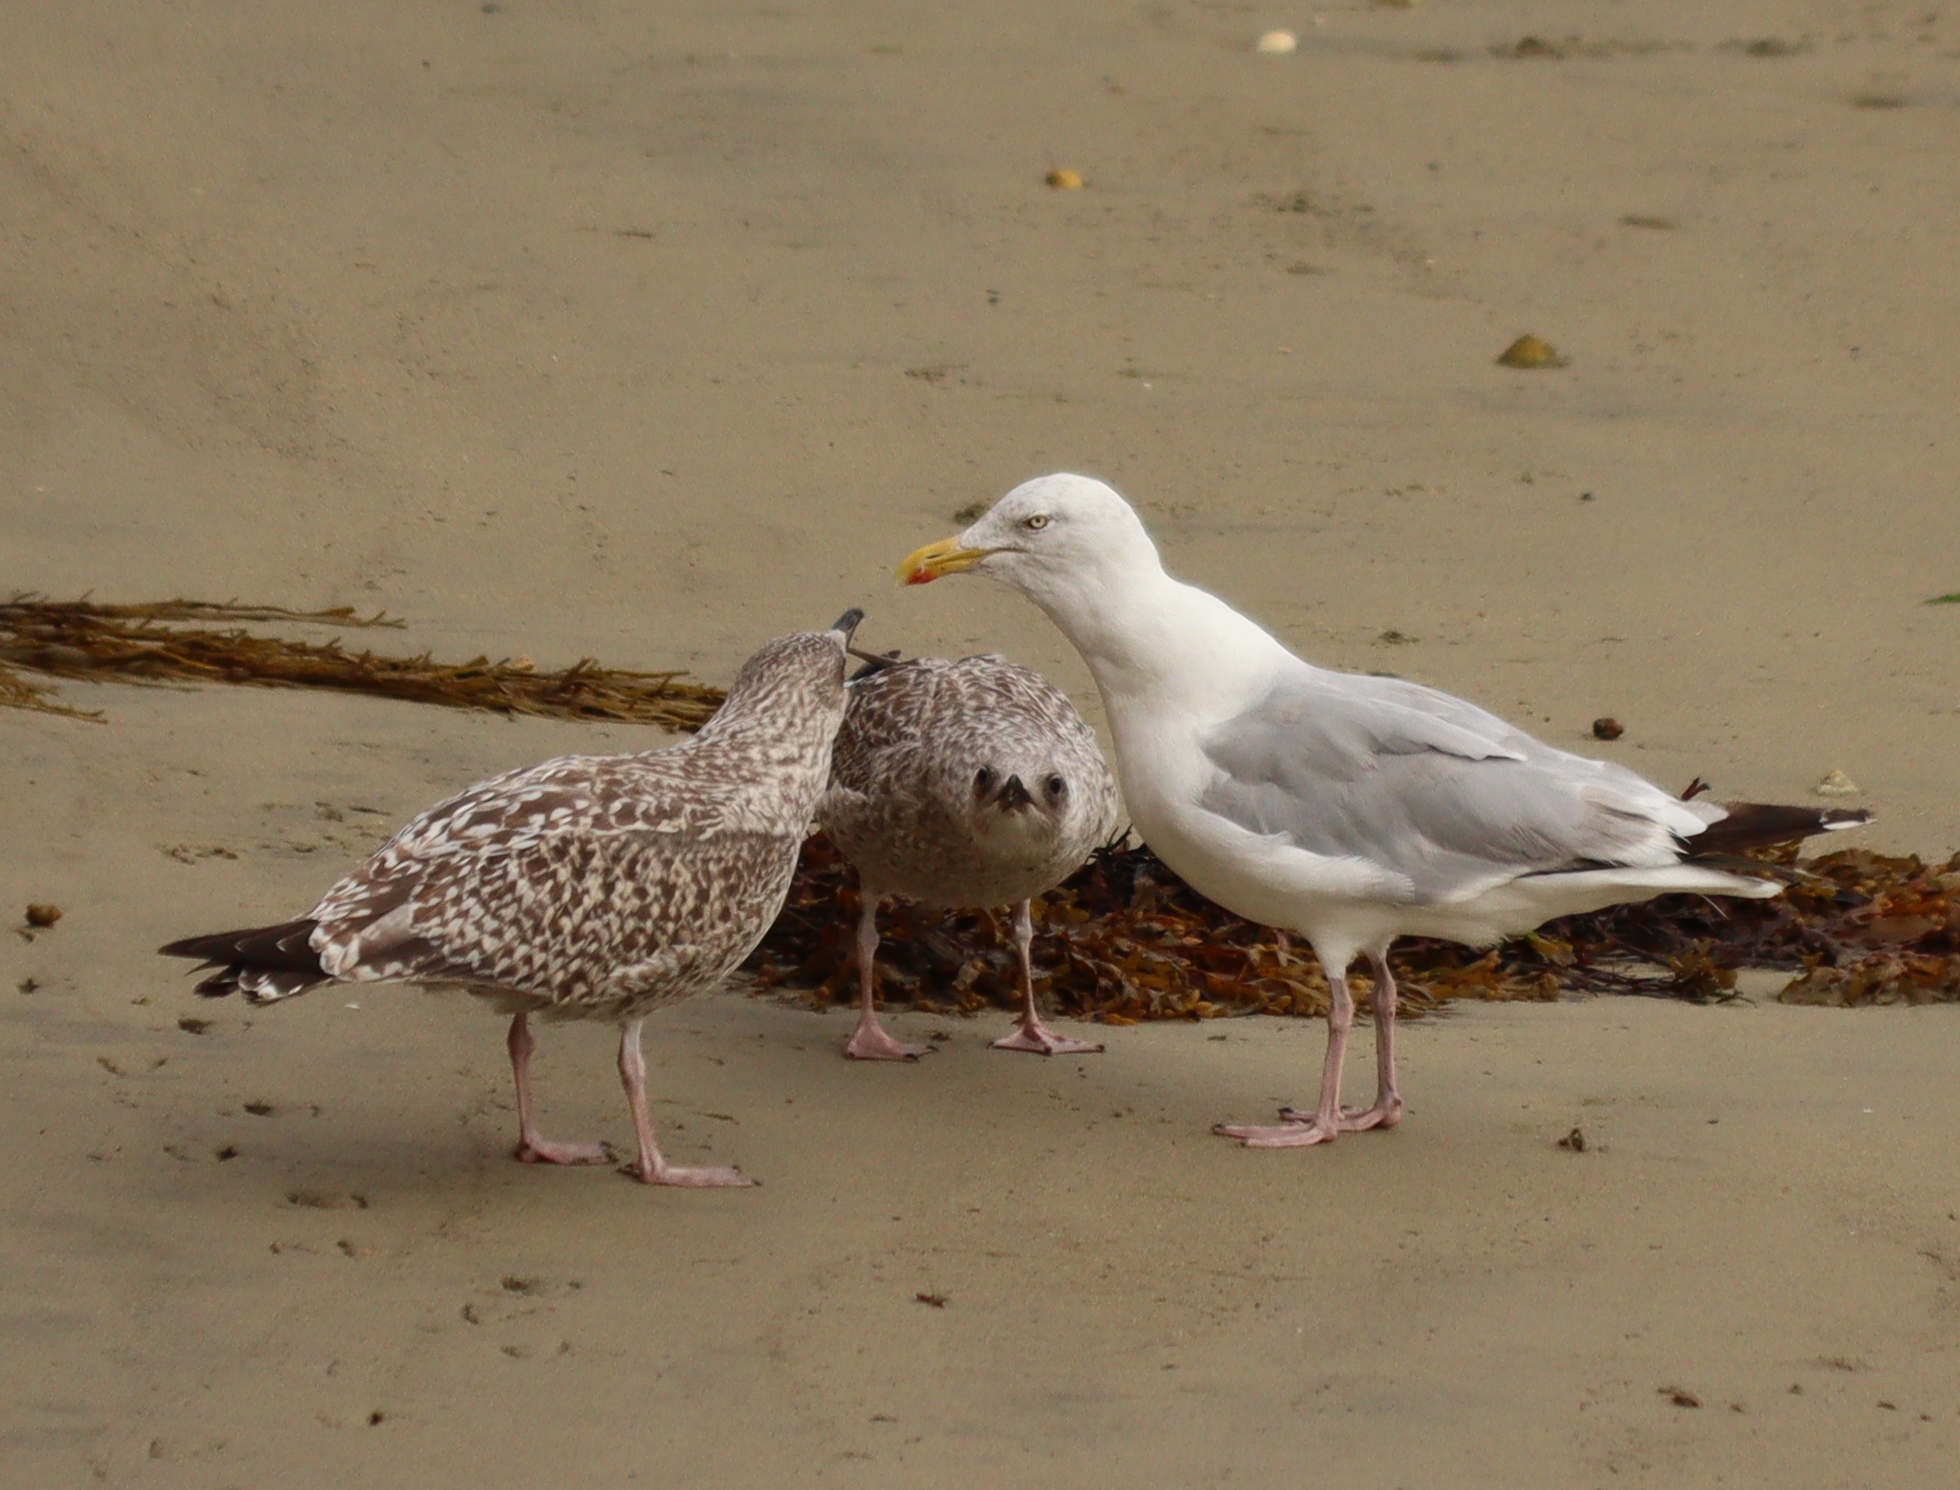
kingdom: Animalia
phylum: Chordata
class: Aves
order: Charadriiformes
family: Laridae
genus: Larus
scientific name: Larus argentatus
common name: Herring gull
